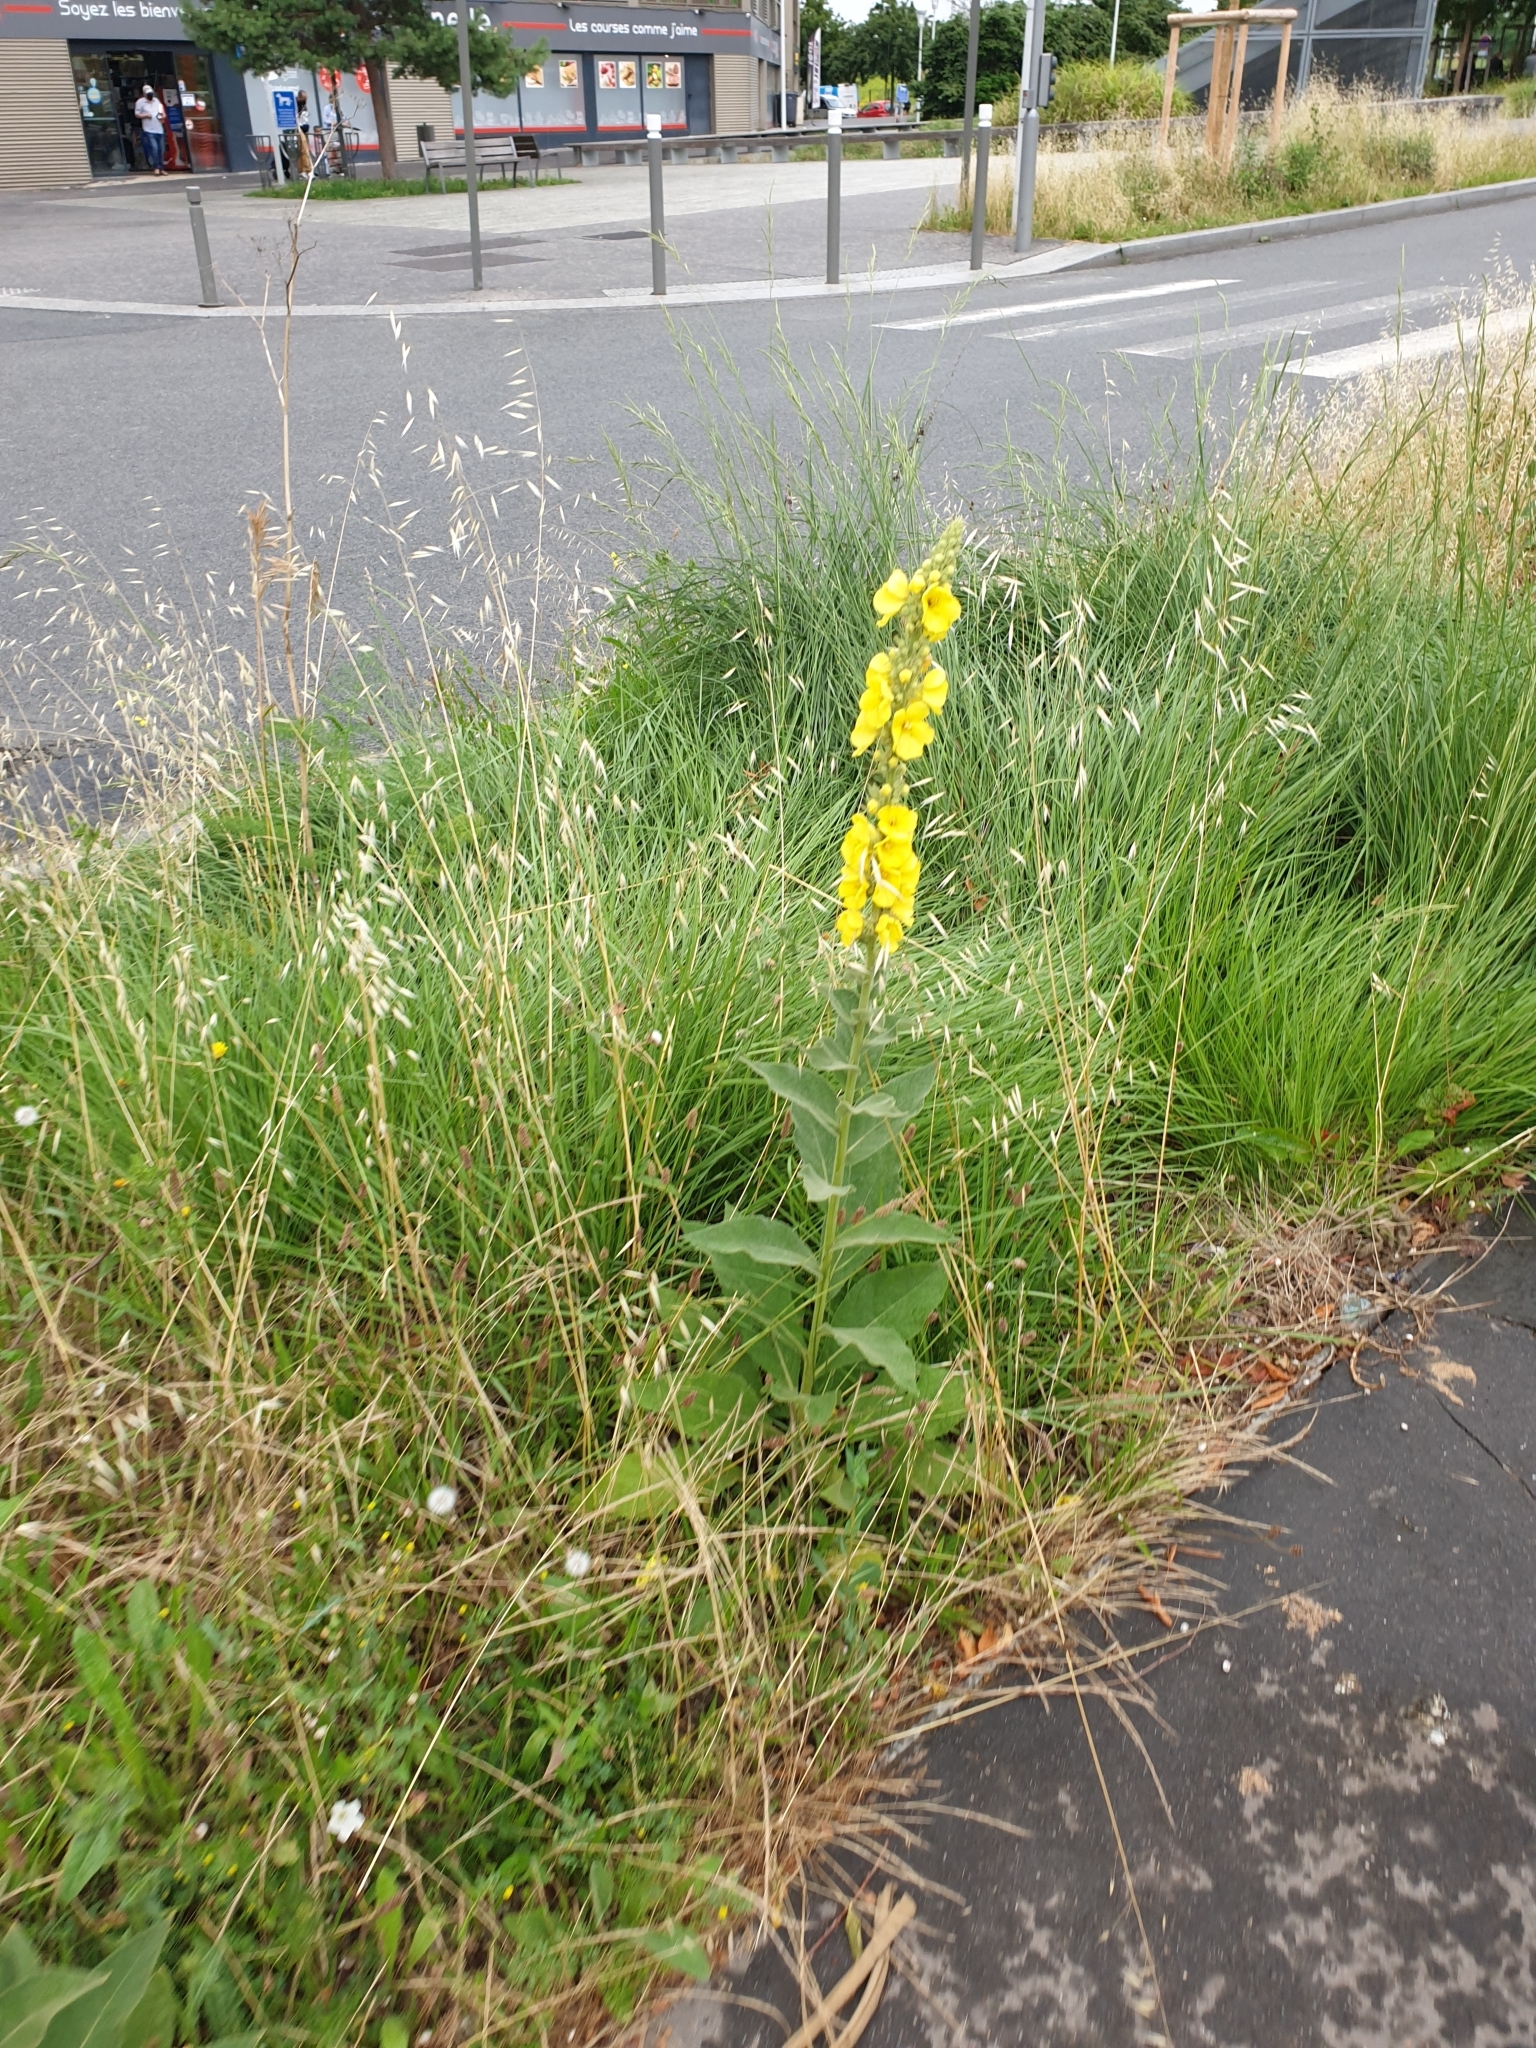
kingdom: Plantae
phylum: Tracheophyta
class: Magnoliopsida
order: Lamiales
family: Scrophulariaceae
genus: Verbascum
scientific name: Verbascum densiflorum
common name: Dense-flowered mullein
